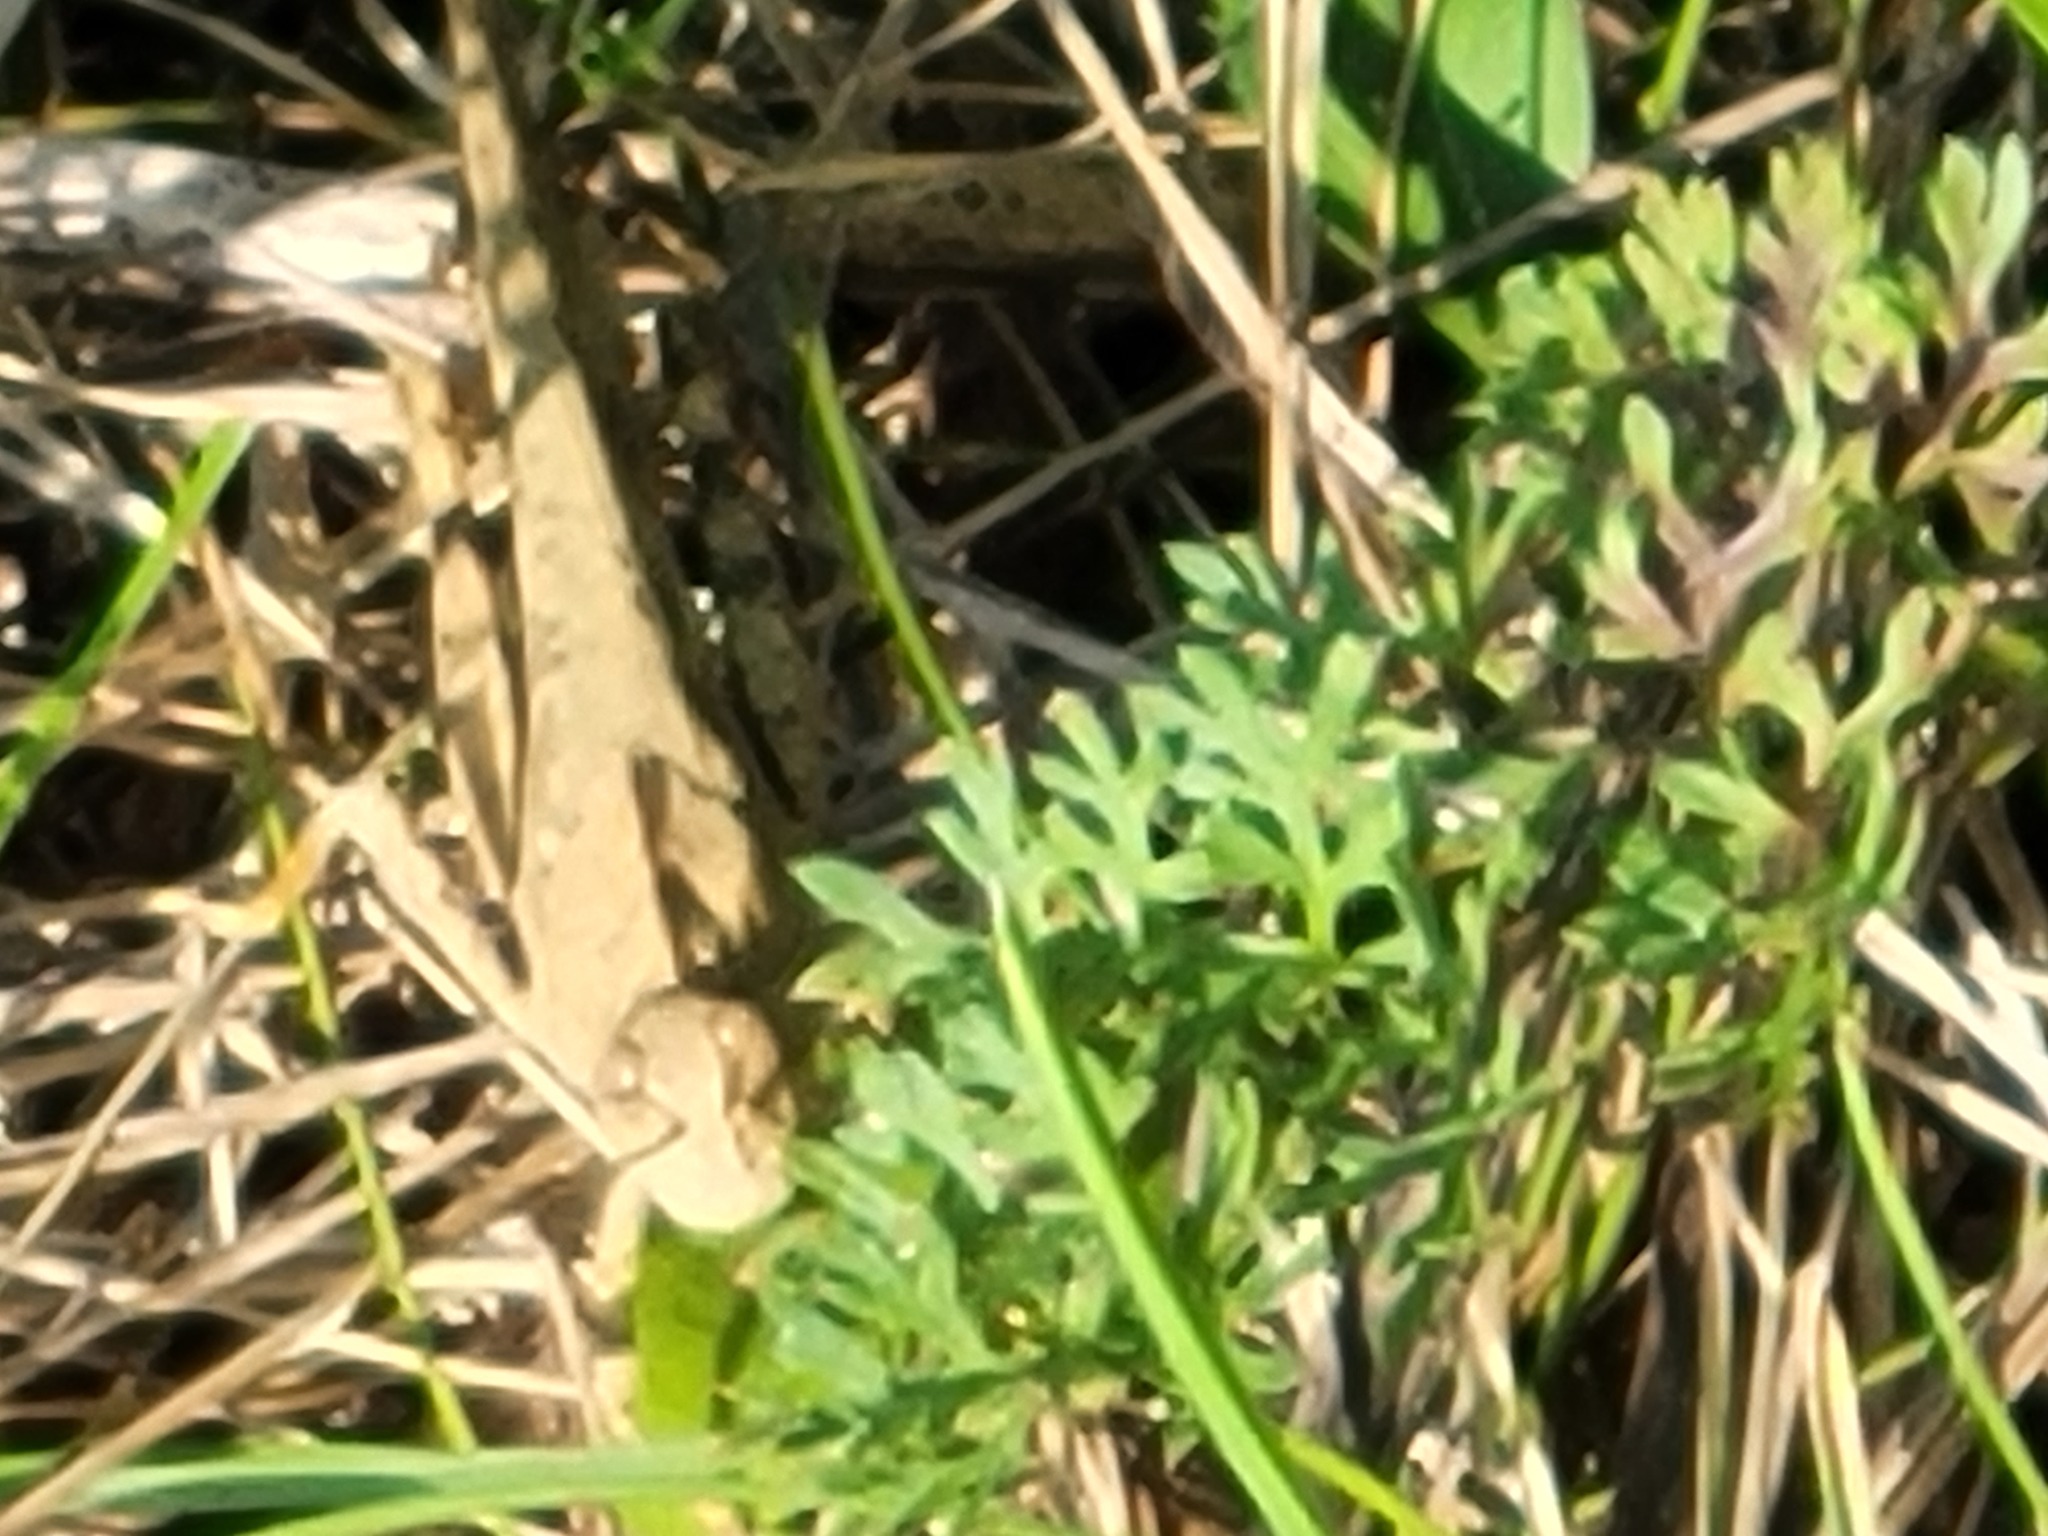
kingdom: Animalia
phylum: Arthropoda
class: Insecta
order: Orthoptera
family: Acrididae
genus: Dissosteira
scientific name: Dissosteira carolina
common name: Carolina grasshopper
